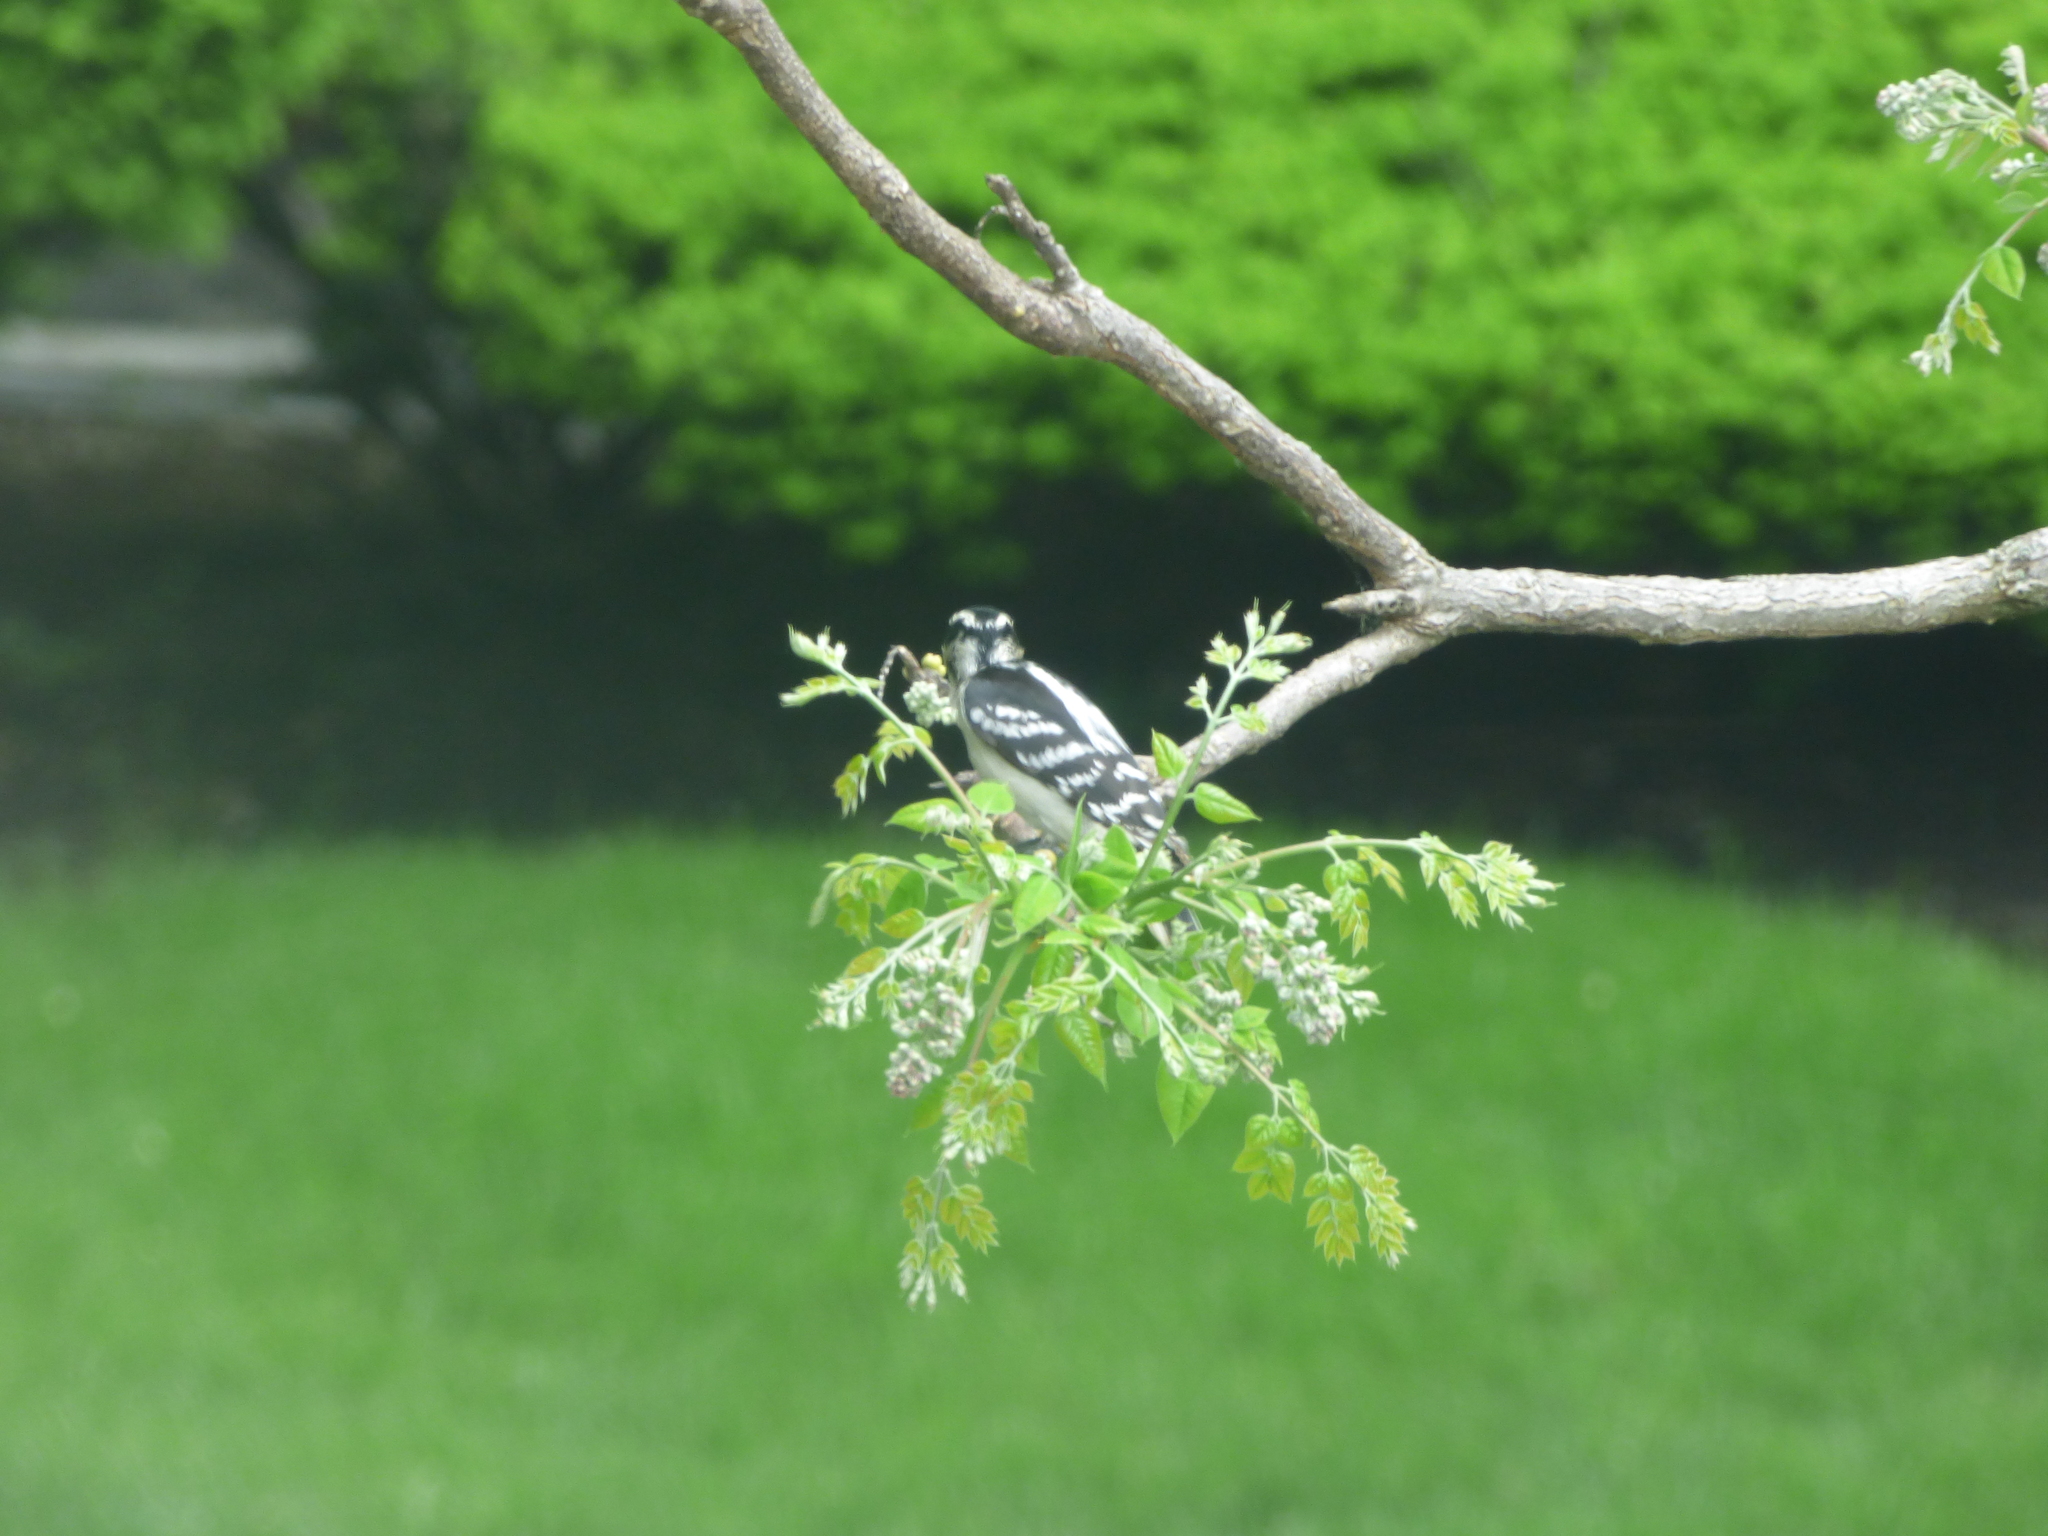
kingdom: Animalia
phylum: Chordata
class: Aves
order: Piciformes
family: Picidae
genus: Dryobates
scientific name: Dryobates pubescens
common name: Downy woodpecker
